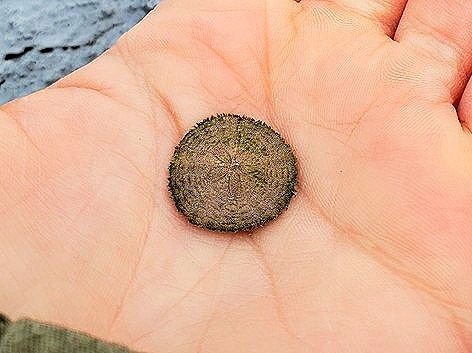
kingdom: Animalia
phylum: Echinodermata
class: Echinoidea
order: Echinolampadacea
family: Echinarachniidae
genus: Echinarachnius
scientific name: Echinarachnius parma
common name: Common sand dollar
